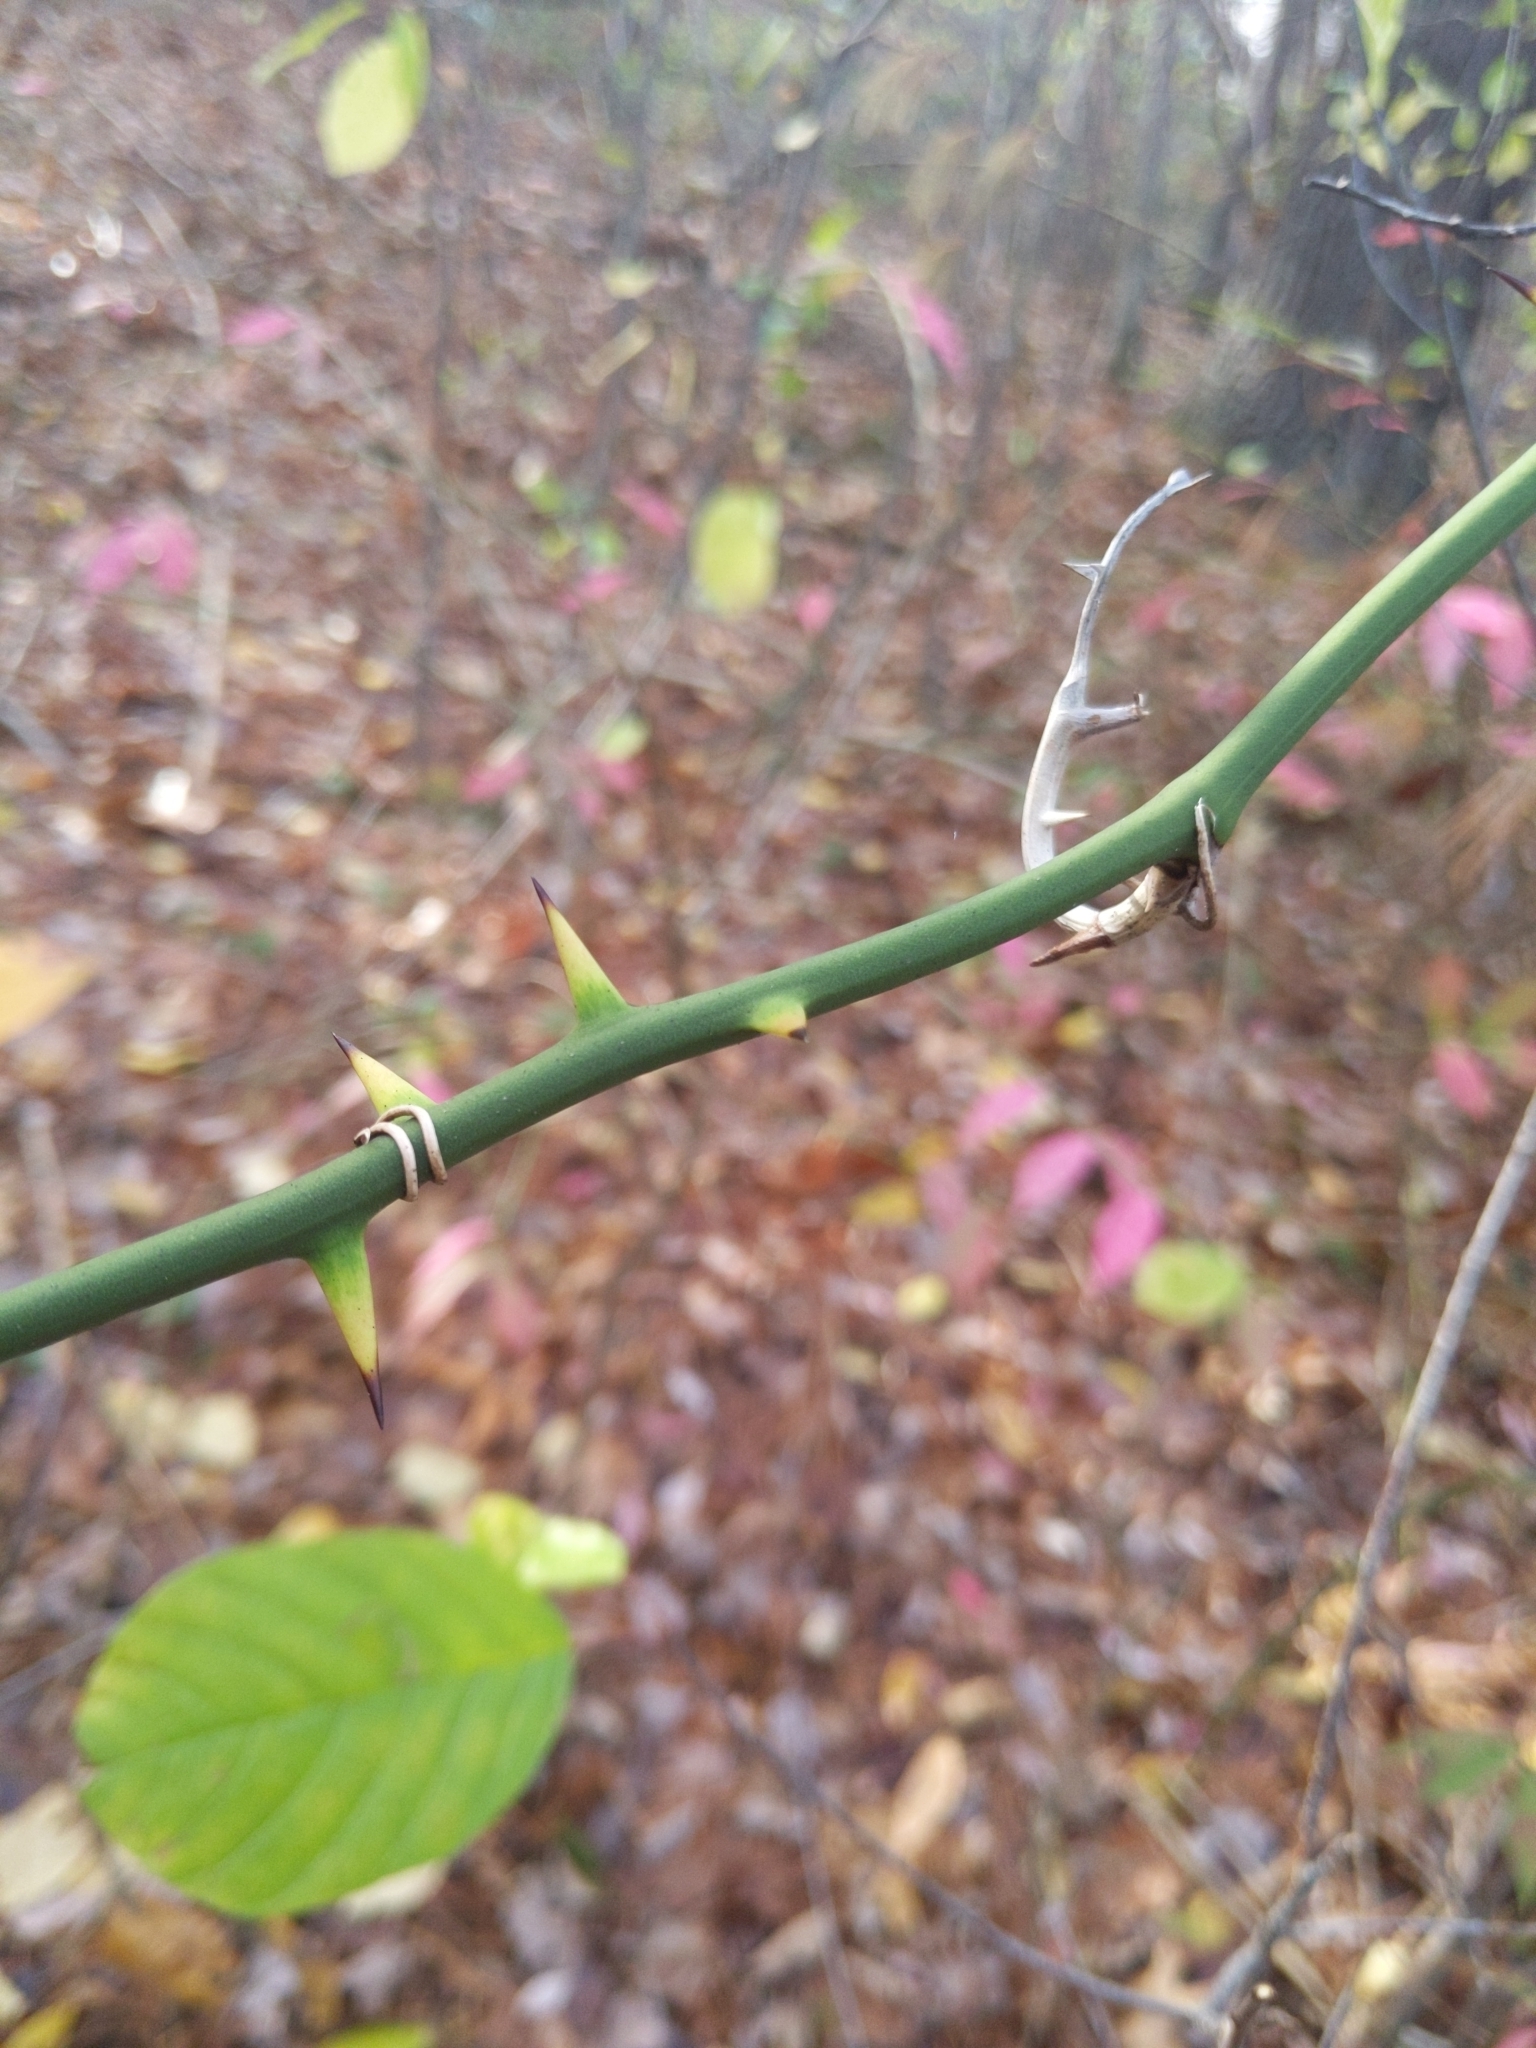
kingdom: Plantae
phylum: Tracheophyta
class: Liliopsida
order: Liliales
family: Smilacaceae
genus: Smilax
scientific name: Smilax rotundifolia
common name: Bullbriar
